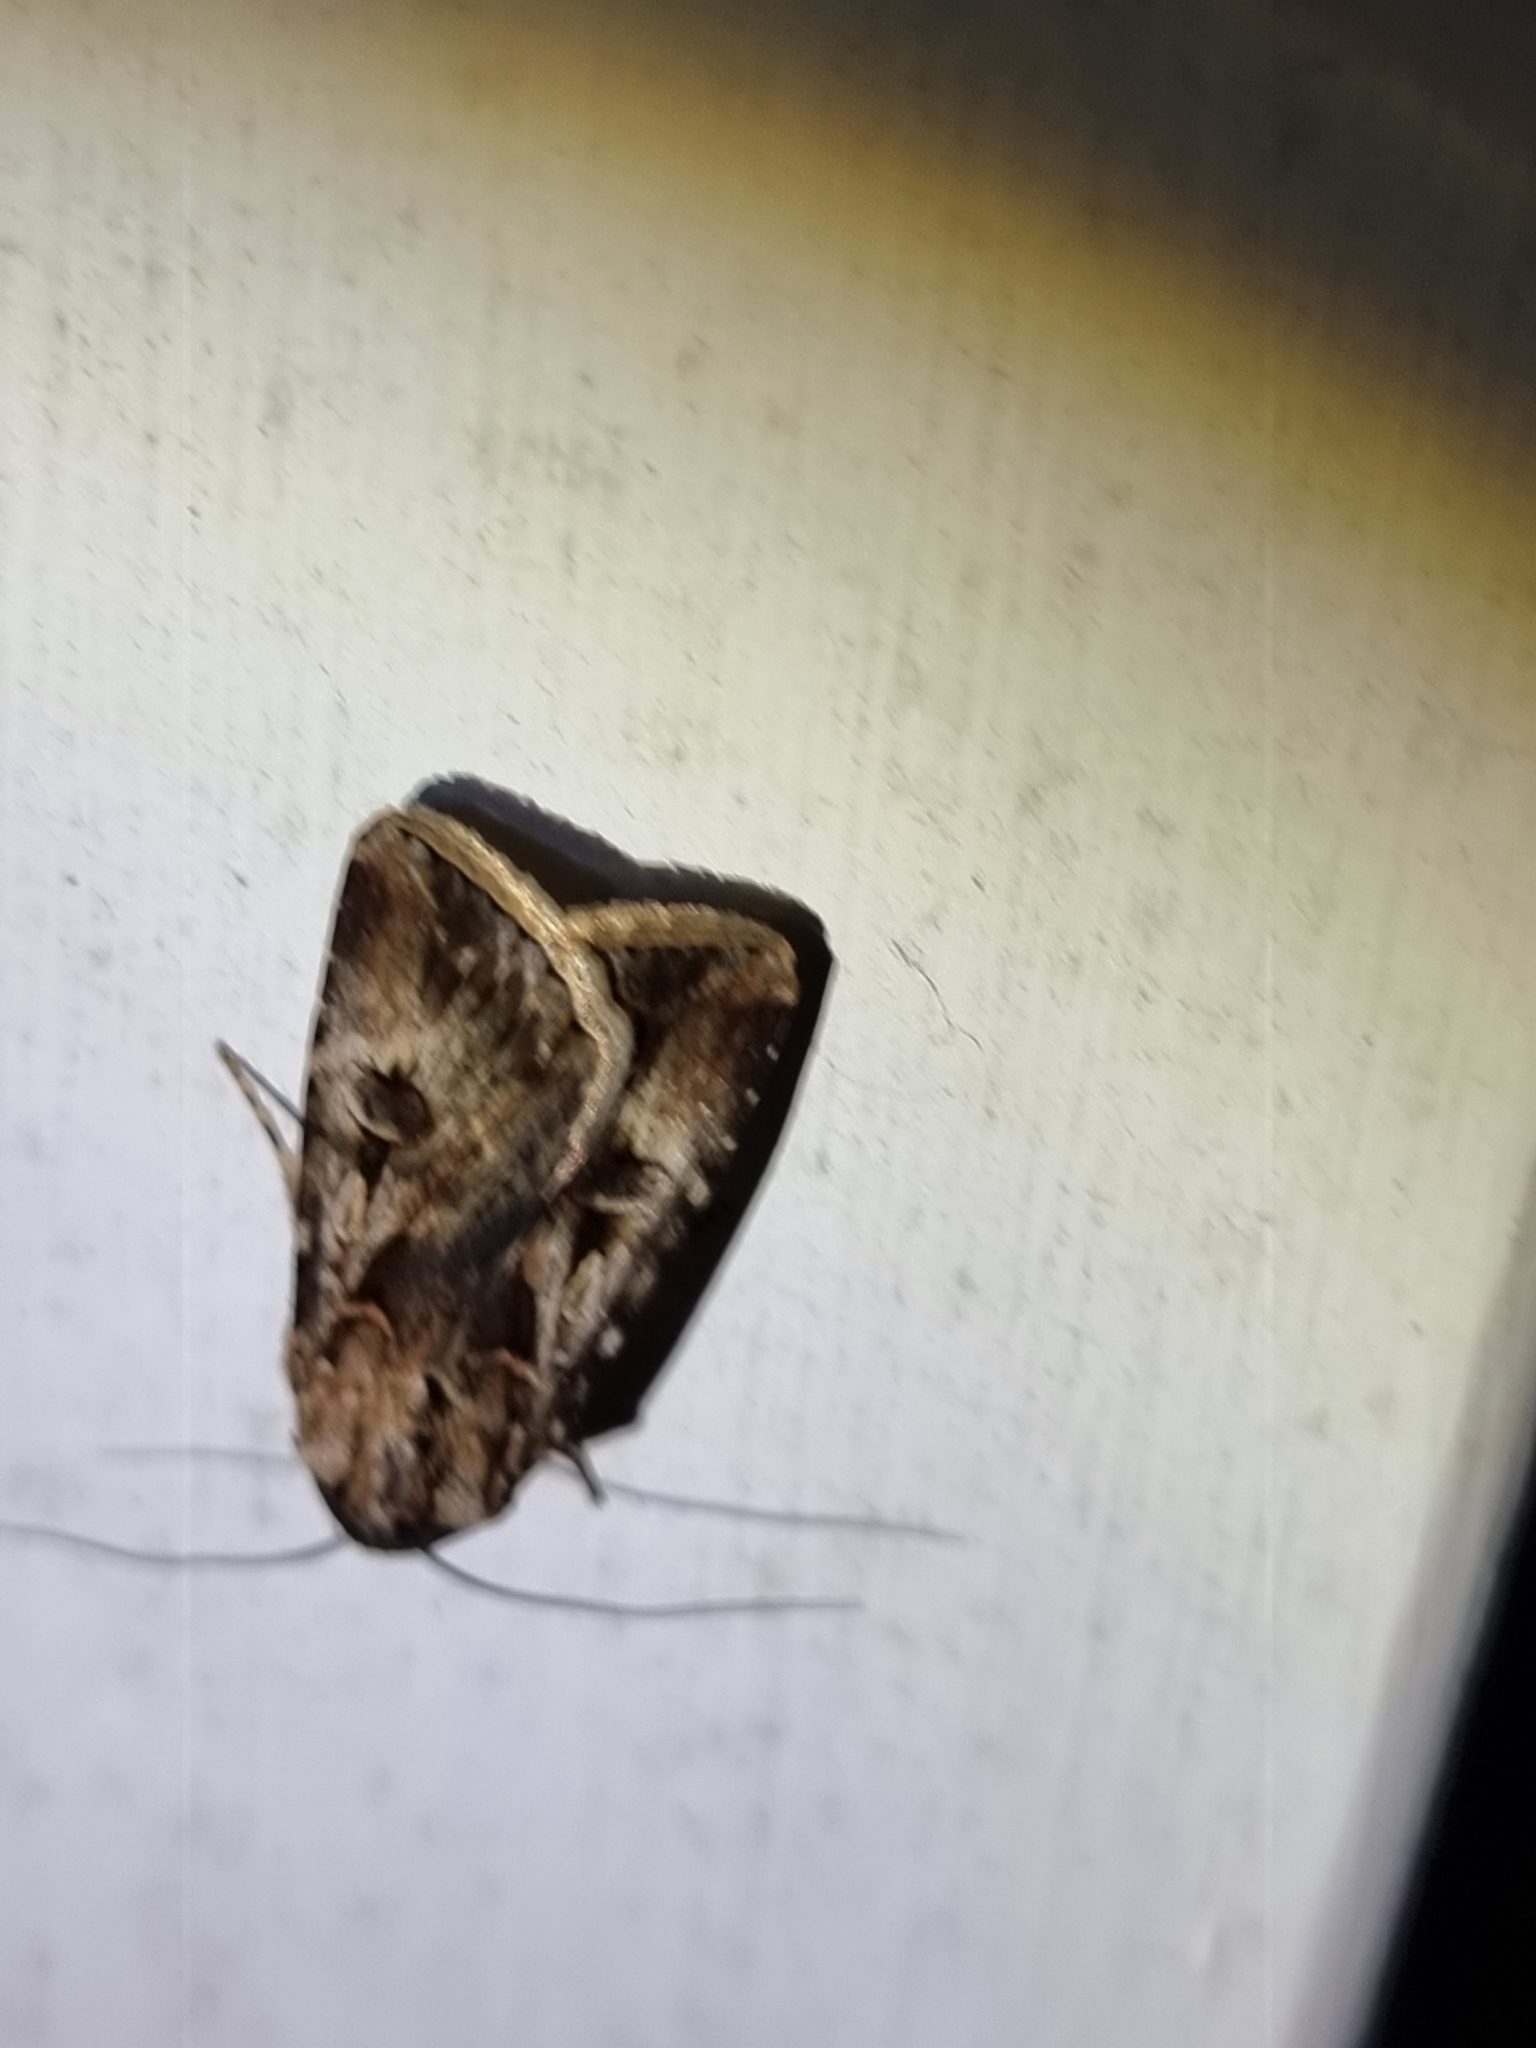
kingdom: Animalia
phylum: Arthropoda
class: Insecta
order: Lepidoptera
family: Noctuidae
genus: Agrotis
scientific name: Agrotis munda
